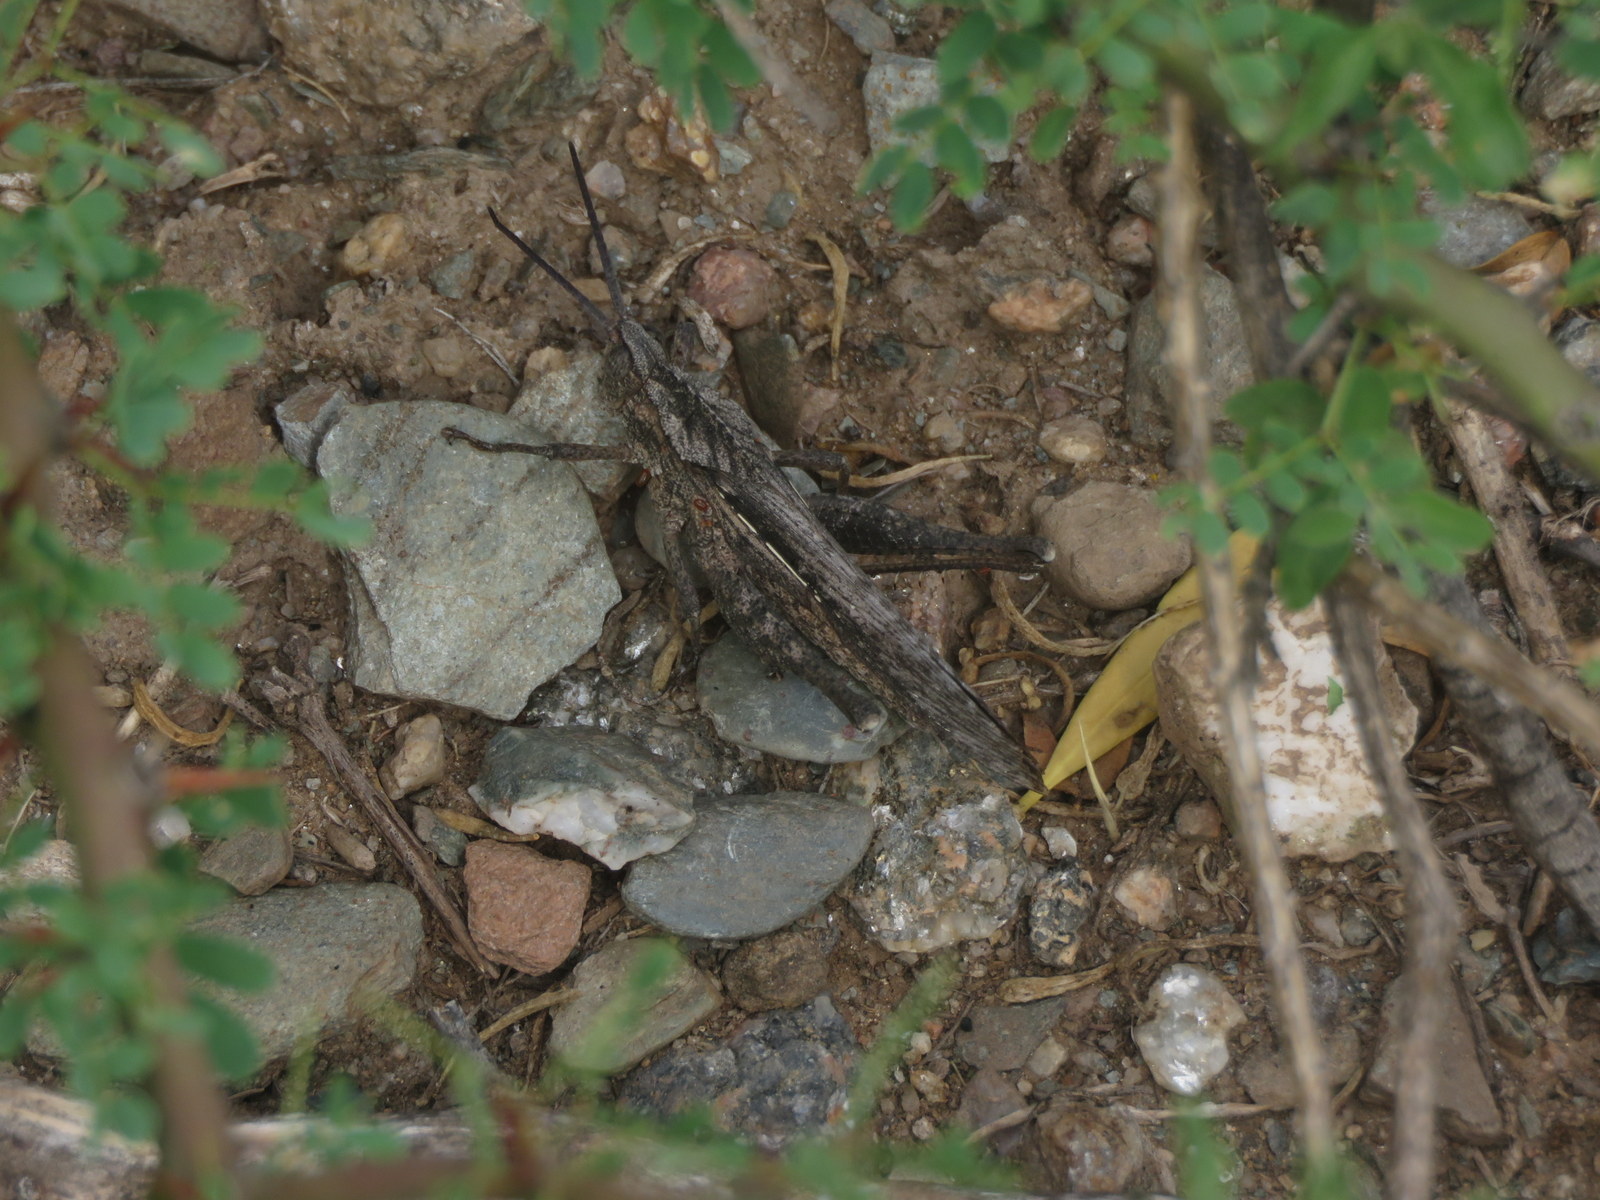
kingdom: Animalia
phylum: Arthropoda
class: Insecta
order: Orthoptera
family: Romaleidae
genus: Xyleus
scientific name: Xyleus insignis
